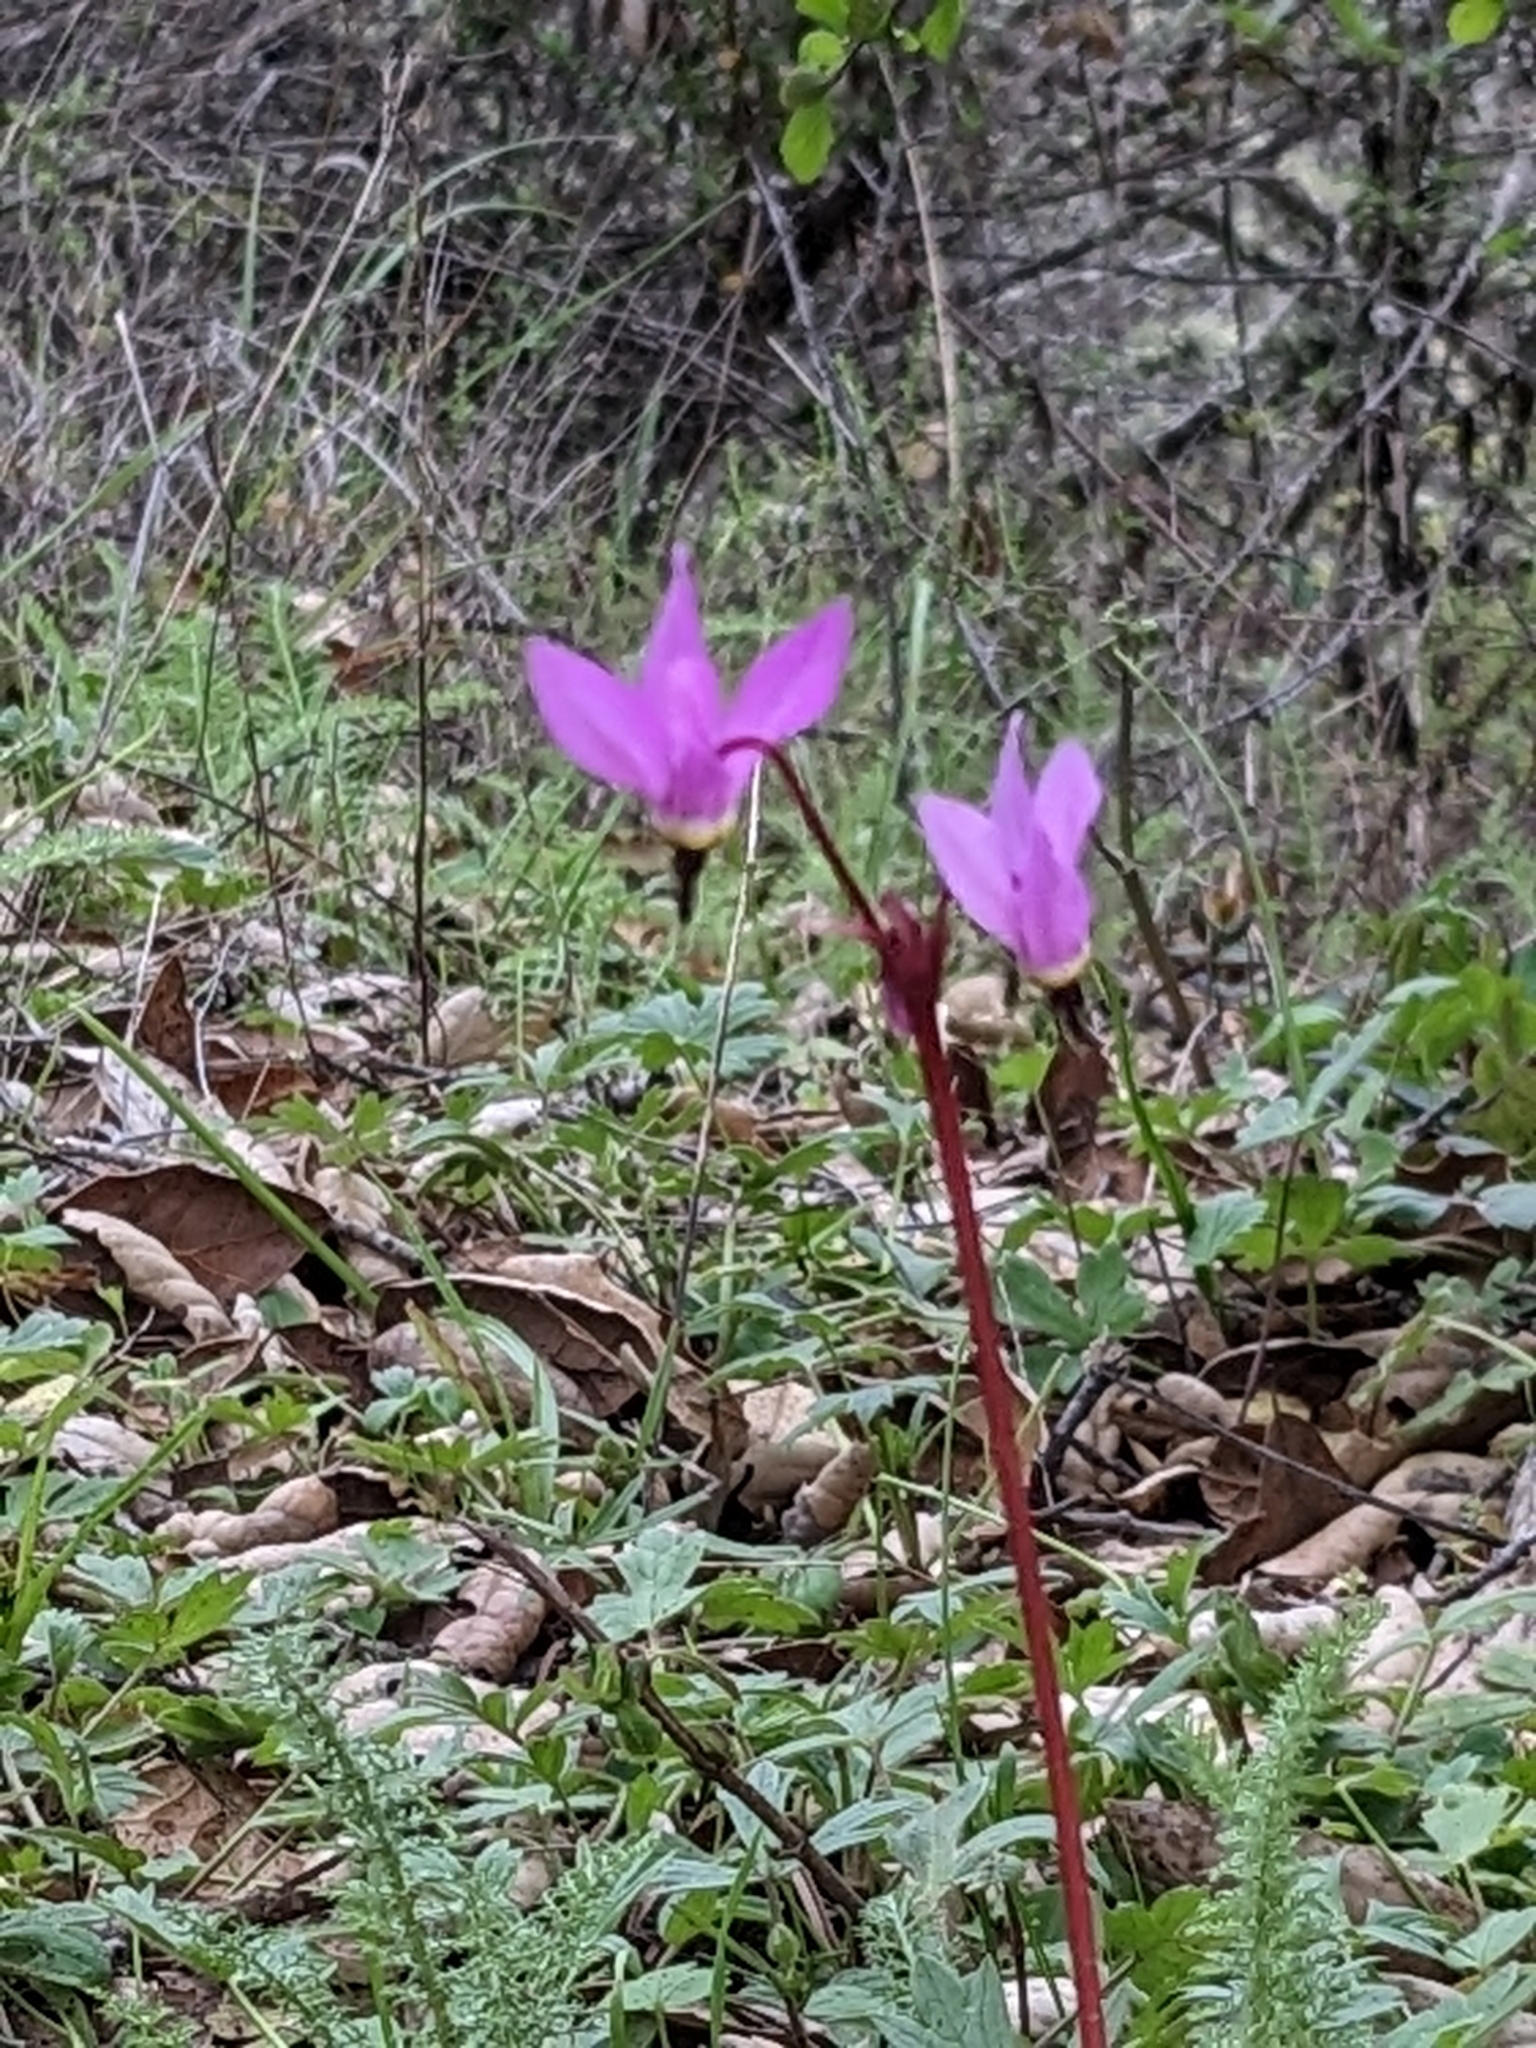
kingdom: Plantae
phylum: Tracheophyta
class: Magnoliopsida
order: Ericales
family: Primulaceae
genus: Dodecatheon
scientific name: Dodecatheon hendersonii
